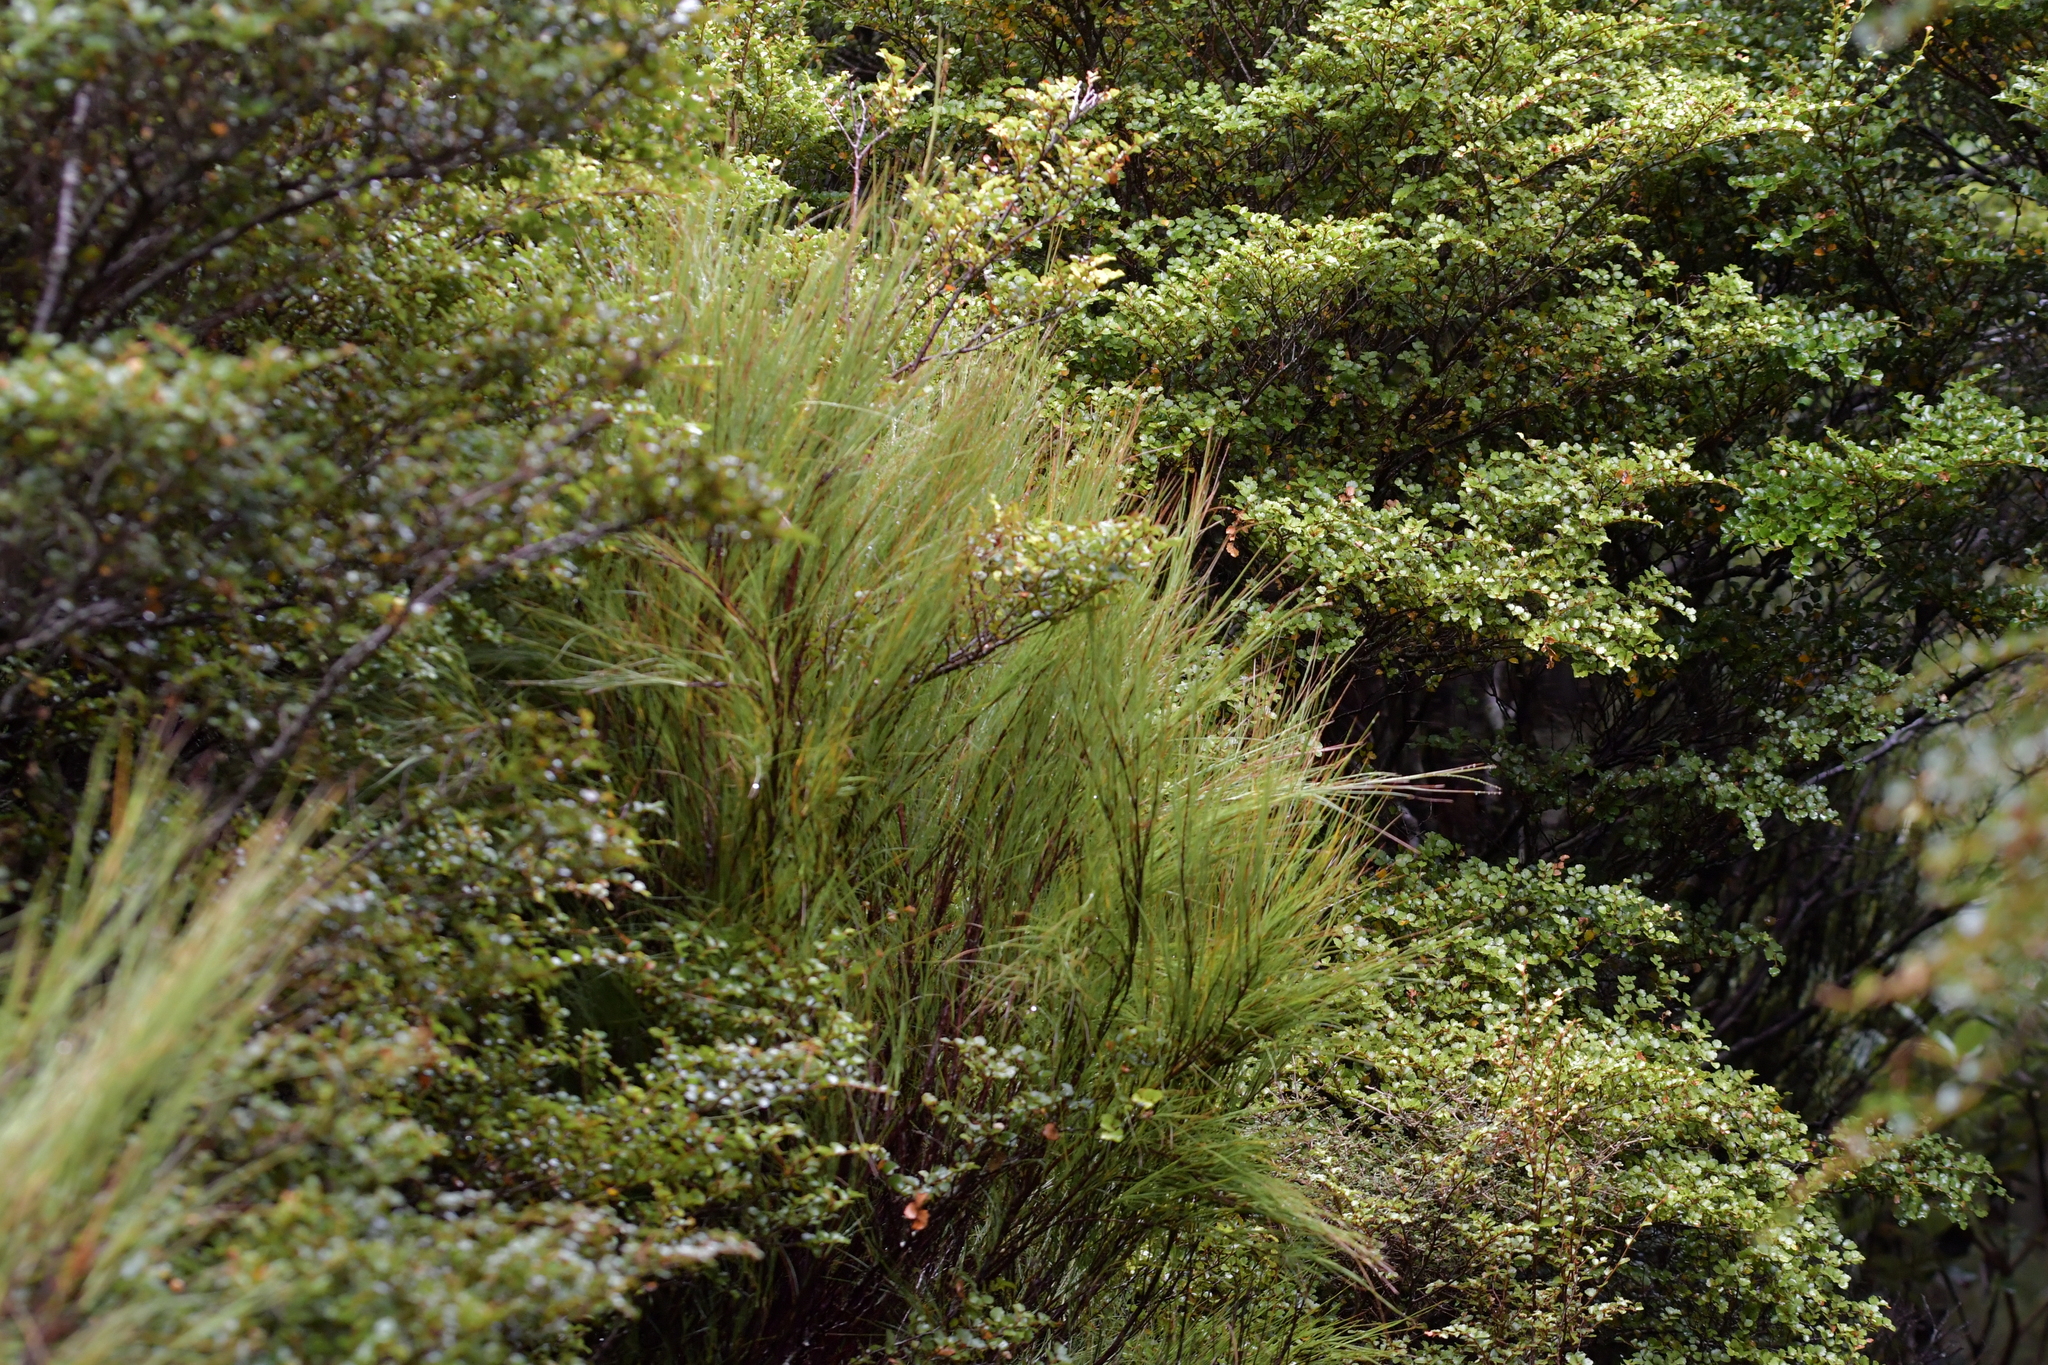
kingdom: Plantae
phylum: Tracheophyta
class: Magnoliopsida
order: Ericales
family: Ericaceae
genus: Dracophyllum
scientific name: Dracophyllum filifolium
